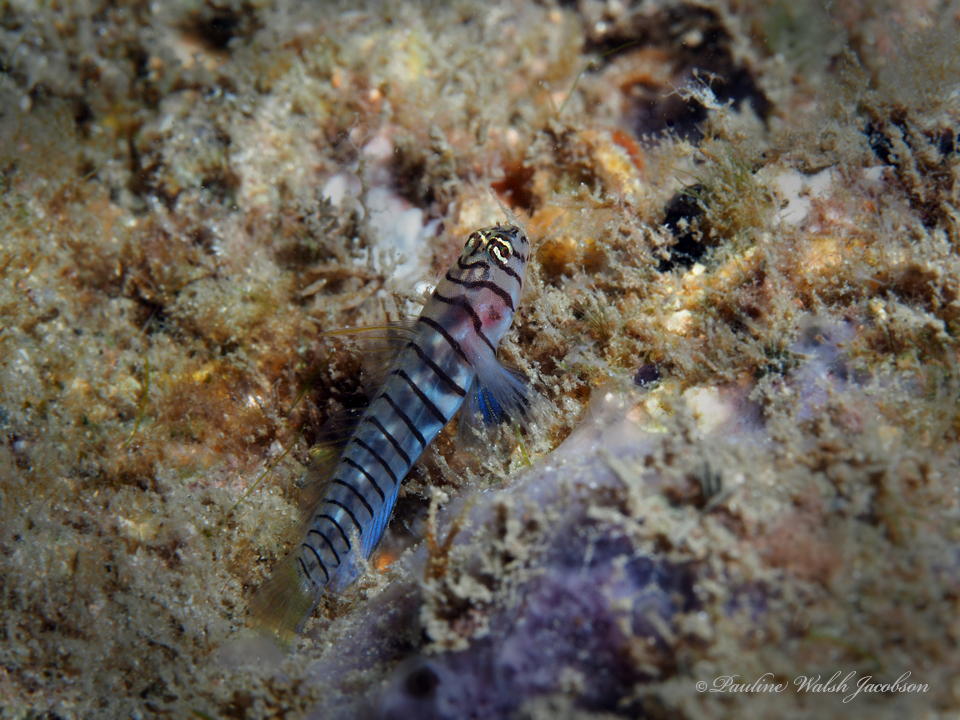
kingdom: Animalia
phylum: Chordata
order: Perciformes
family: Gobiidae
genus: Tigrigobius
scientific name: Tigrigobius macrodon
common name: Tiger goby
